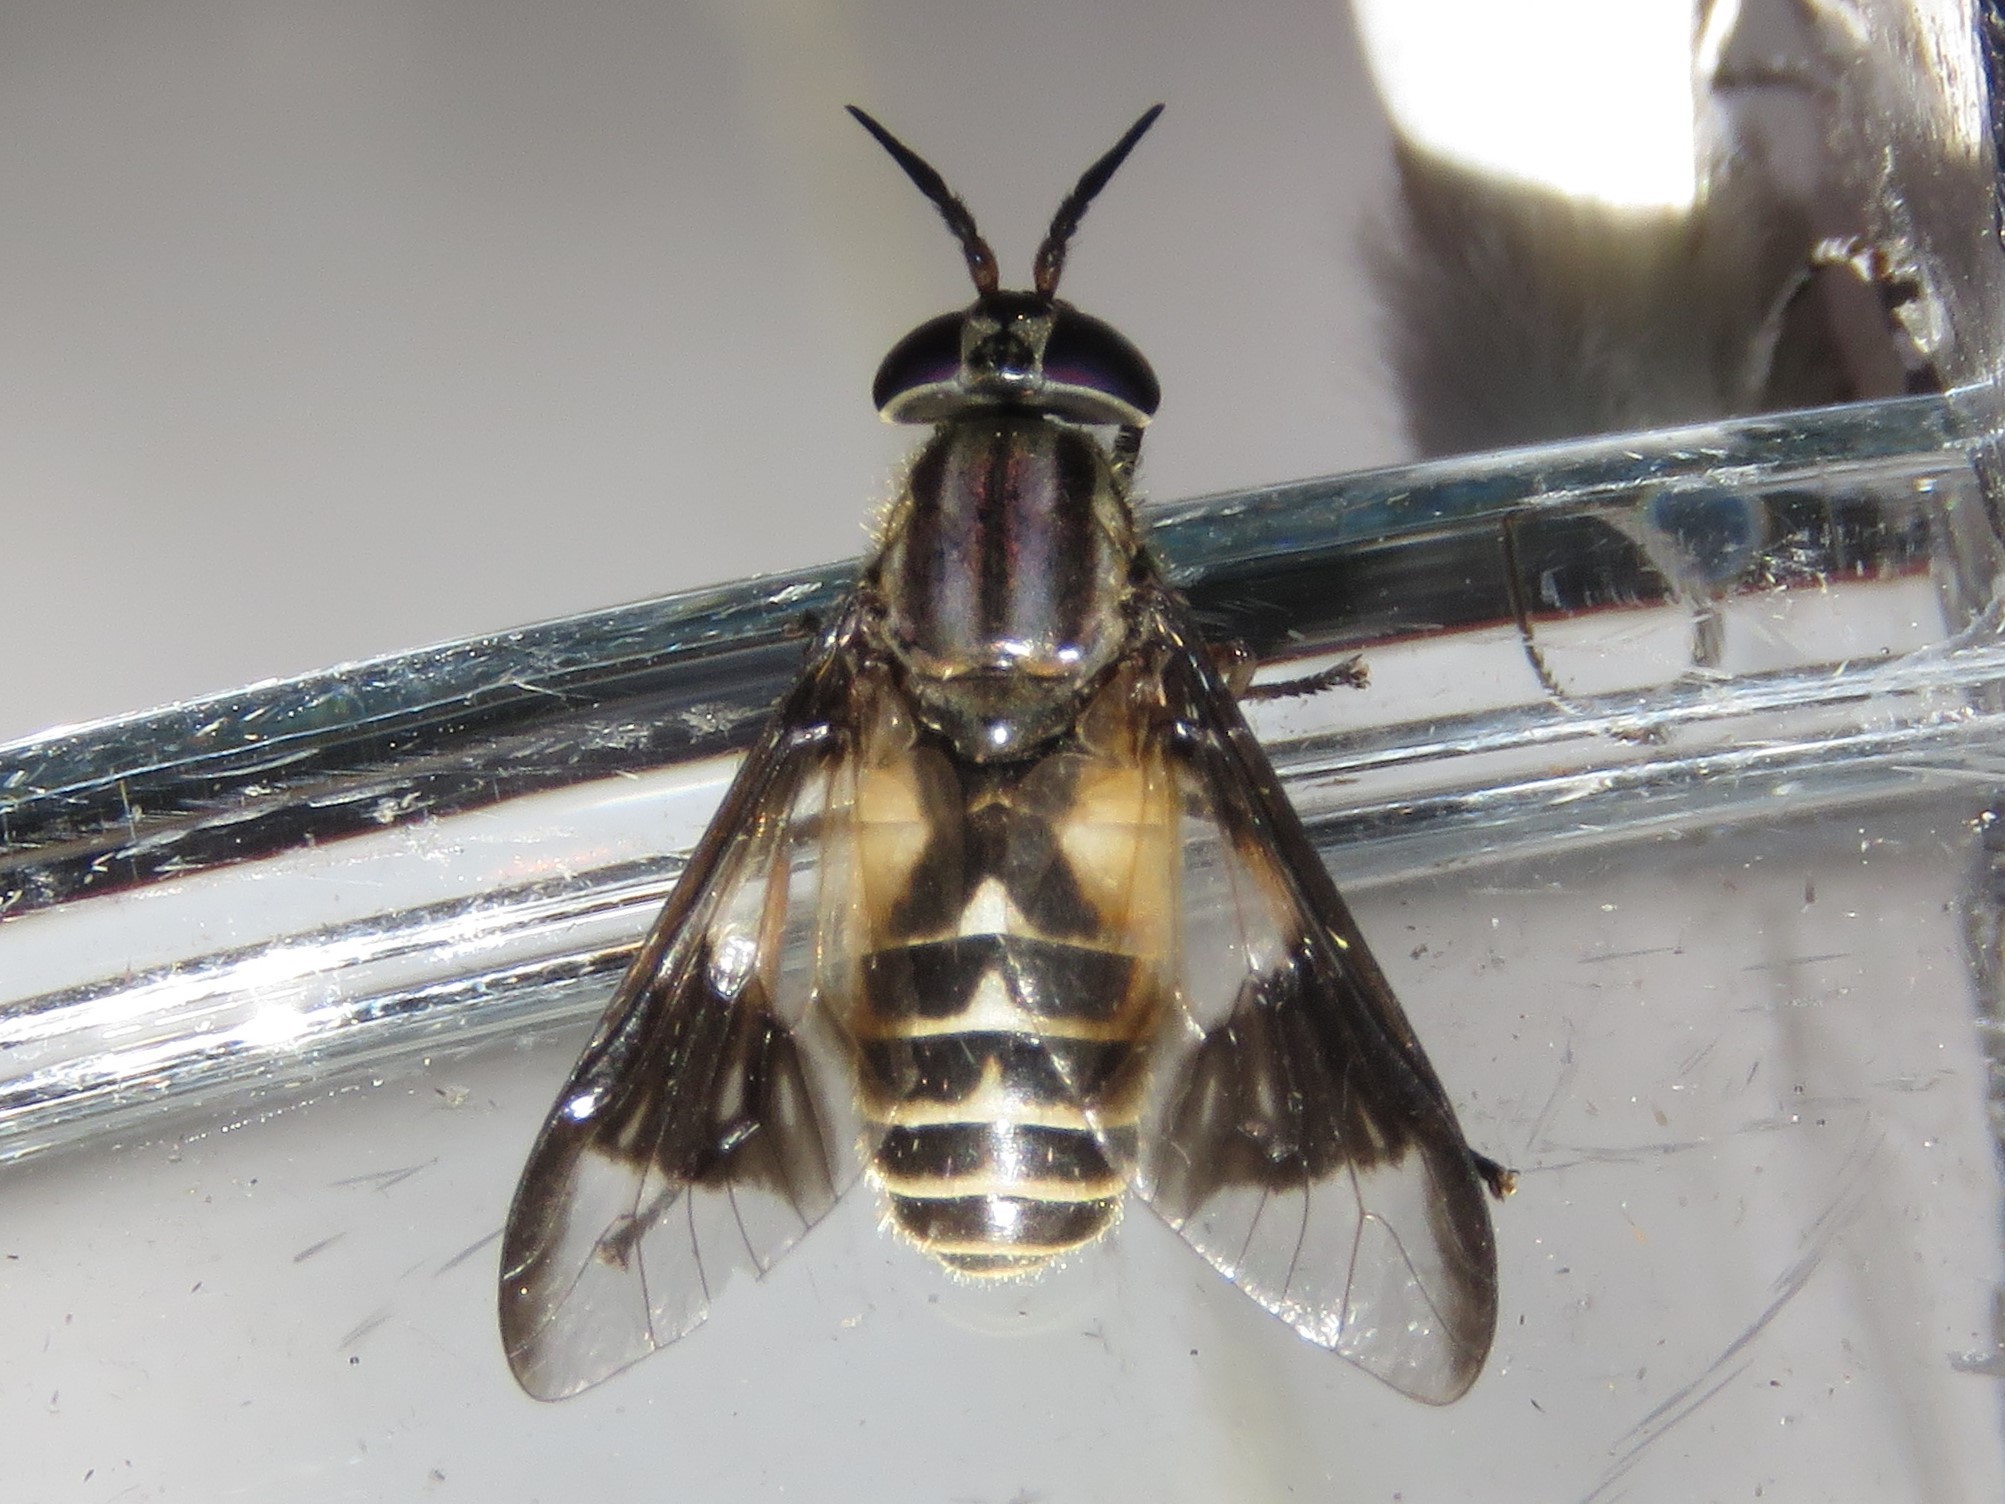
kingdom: Animalia
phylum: Arthropoda
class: Insecta
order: Diptera
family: Tabanidae
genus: Chrysops
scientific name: Chrysops sackeni
